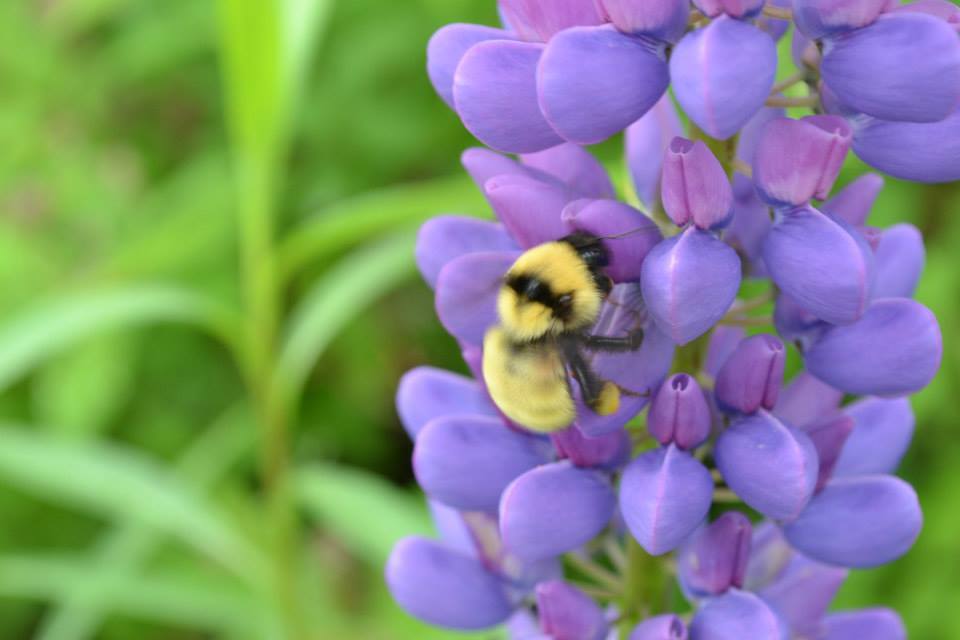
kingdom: Animalia
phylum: Arthropoda
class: Insecta
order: Hymenoptera
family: Apidae
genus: Bombus
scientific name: Bombus fervidus
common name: Yellow bumble bee
